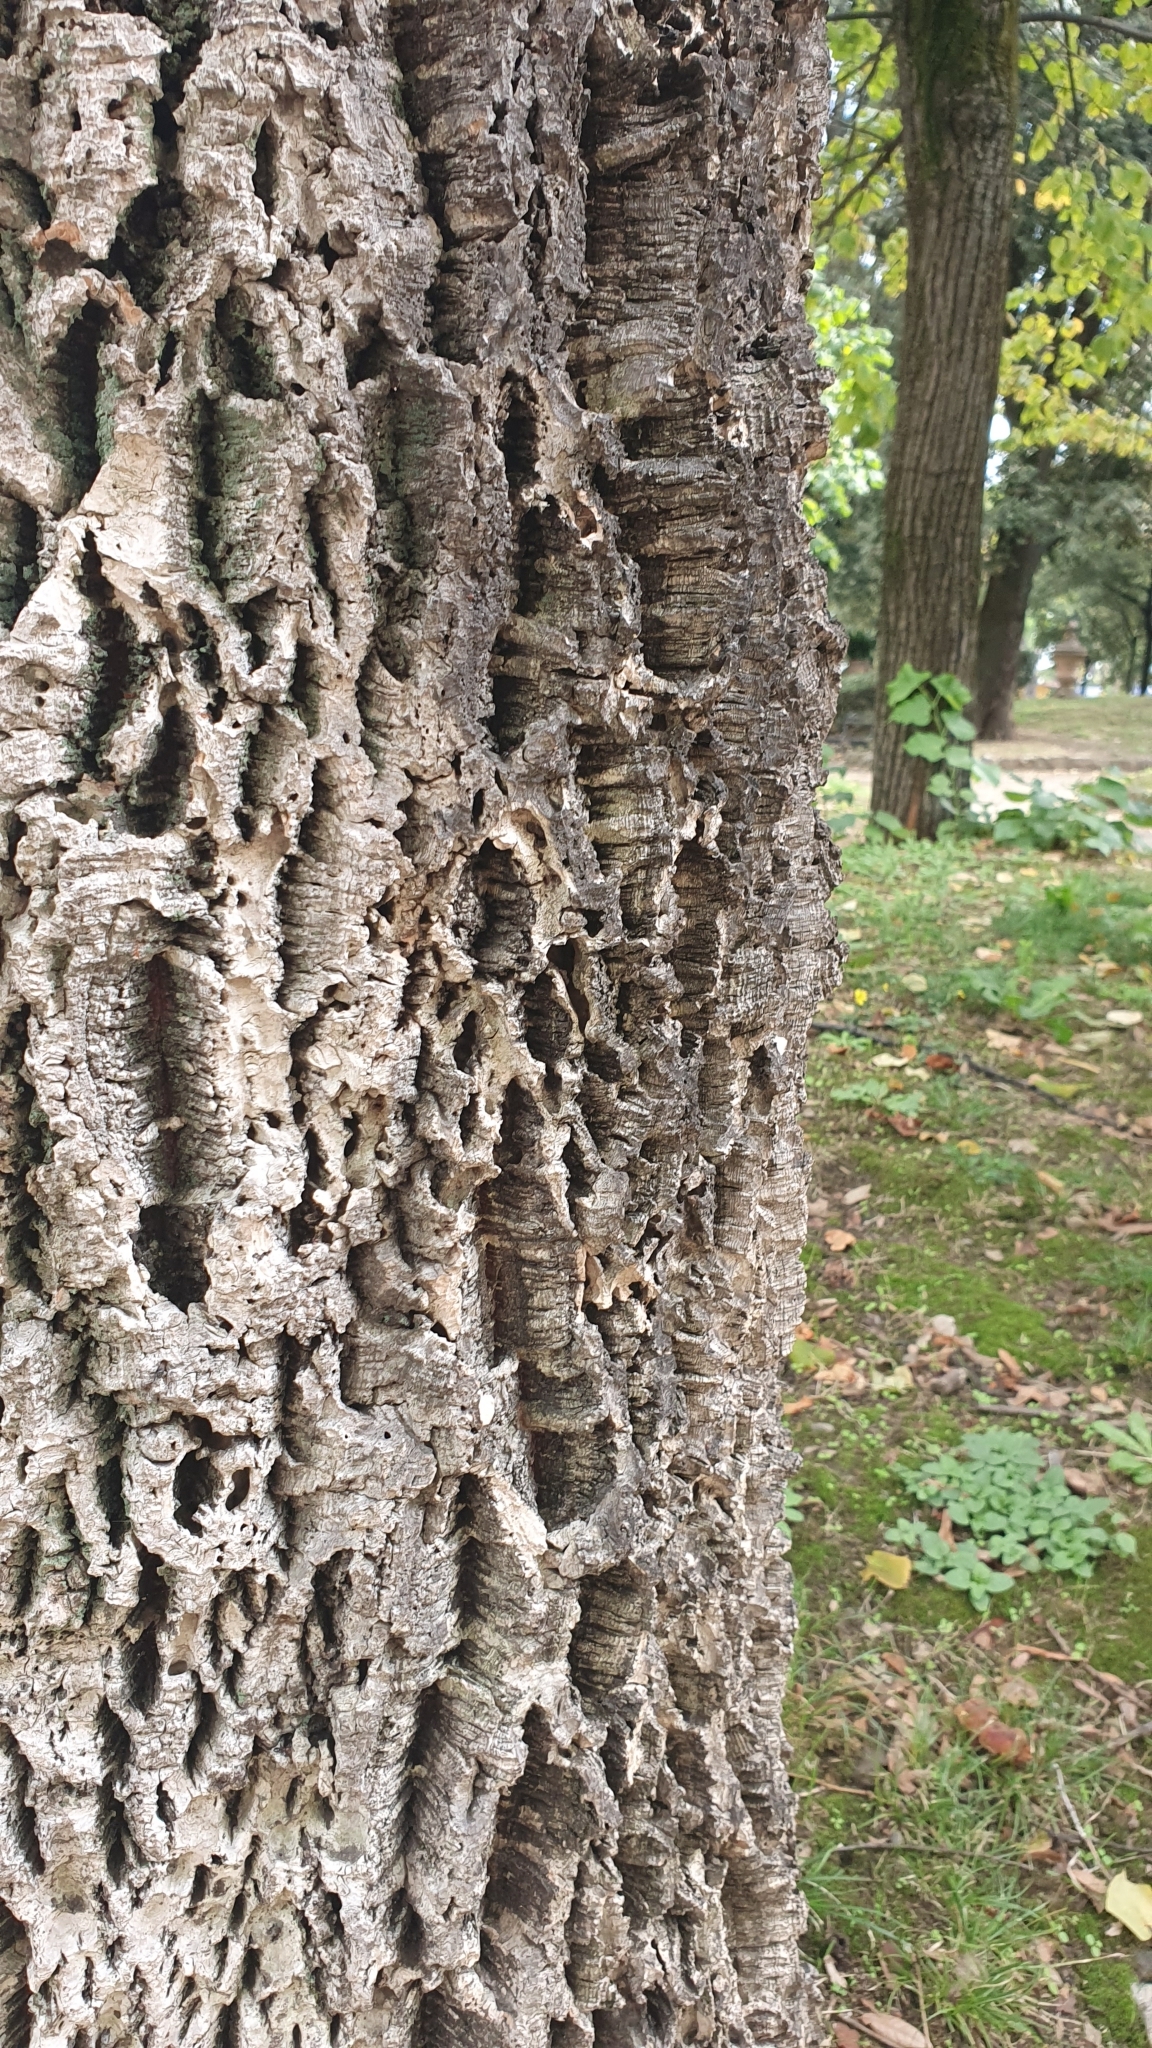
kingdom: Plantae
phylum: Tracheophyta
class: Magnoliopsida
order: Fagales
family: Fagaceae
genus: Quercus
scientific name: Quercus suber
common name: Cork oak
